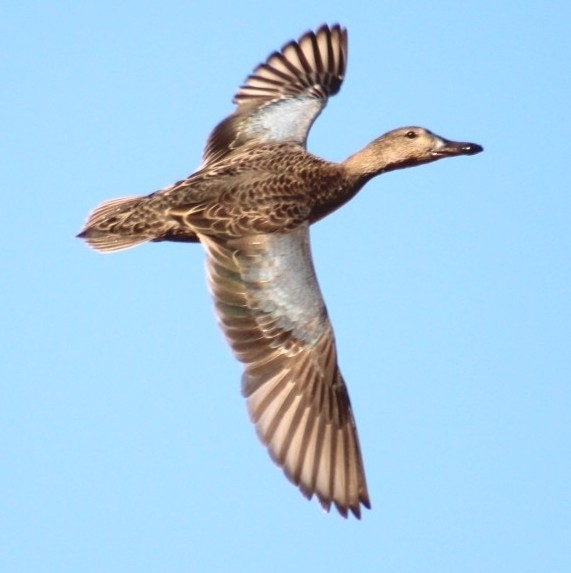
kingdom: Animalia
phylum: Chordata
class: Aves
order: Anseriformes
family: Anatidae
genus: Spatula
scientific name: Spatula discors
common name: Blue-winged teal
